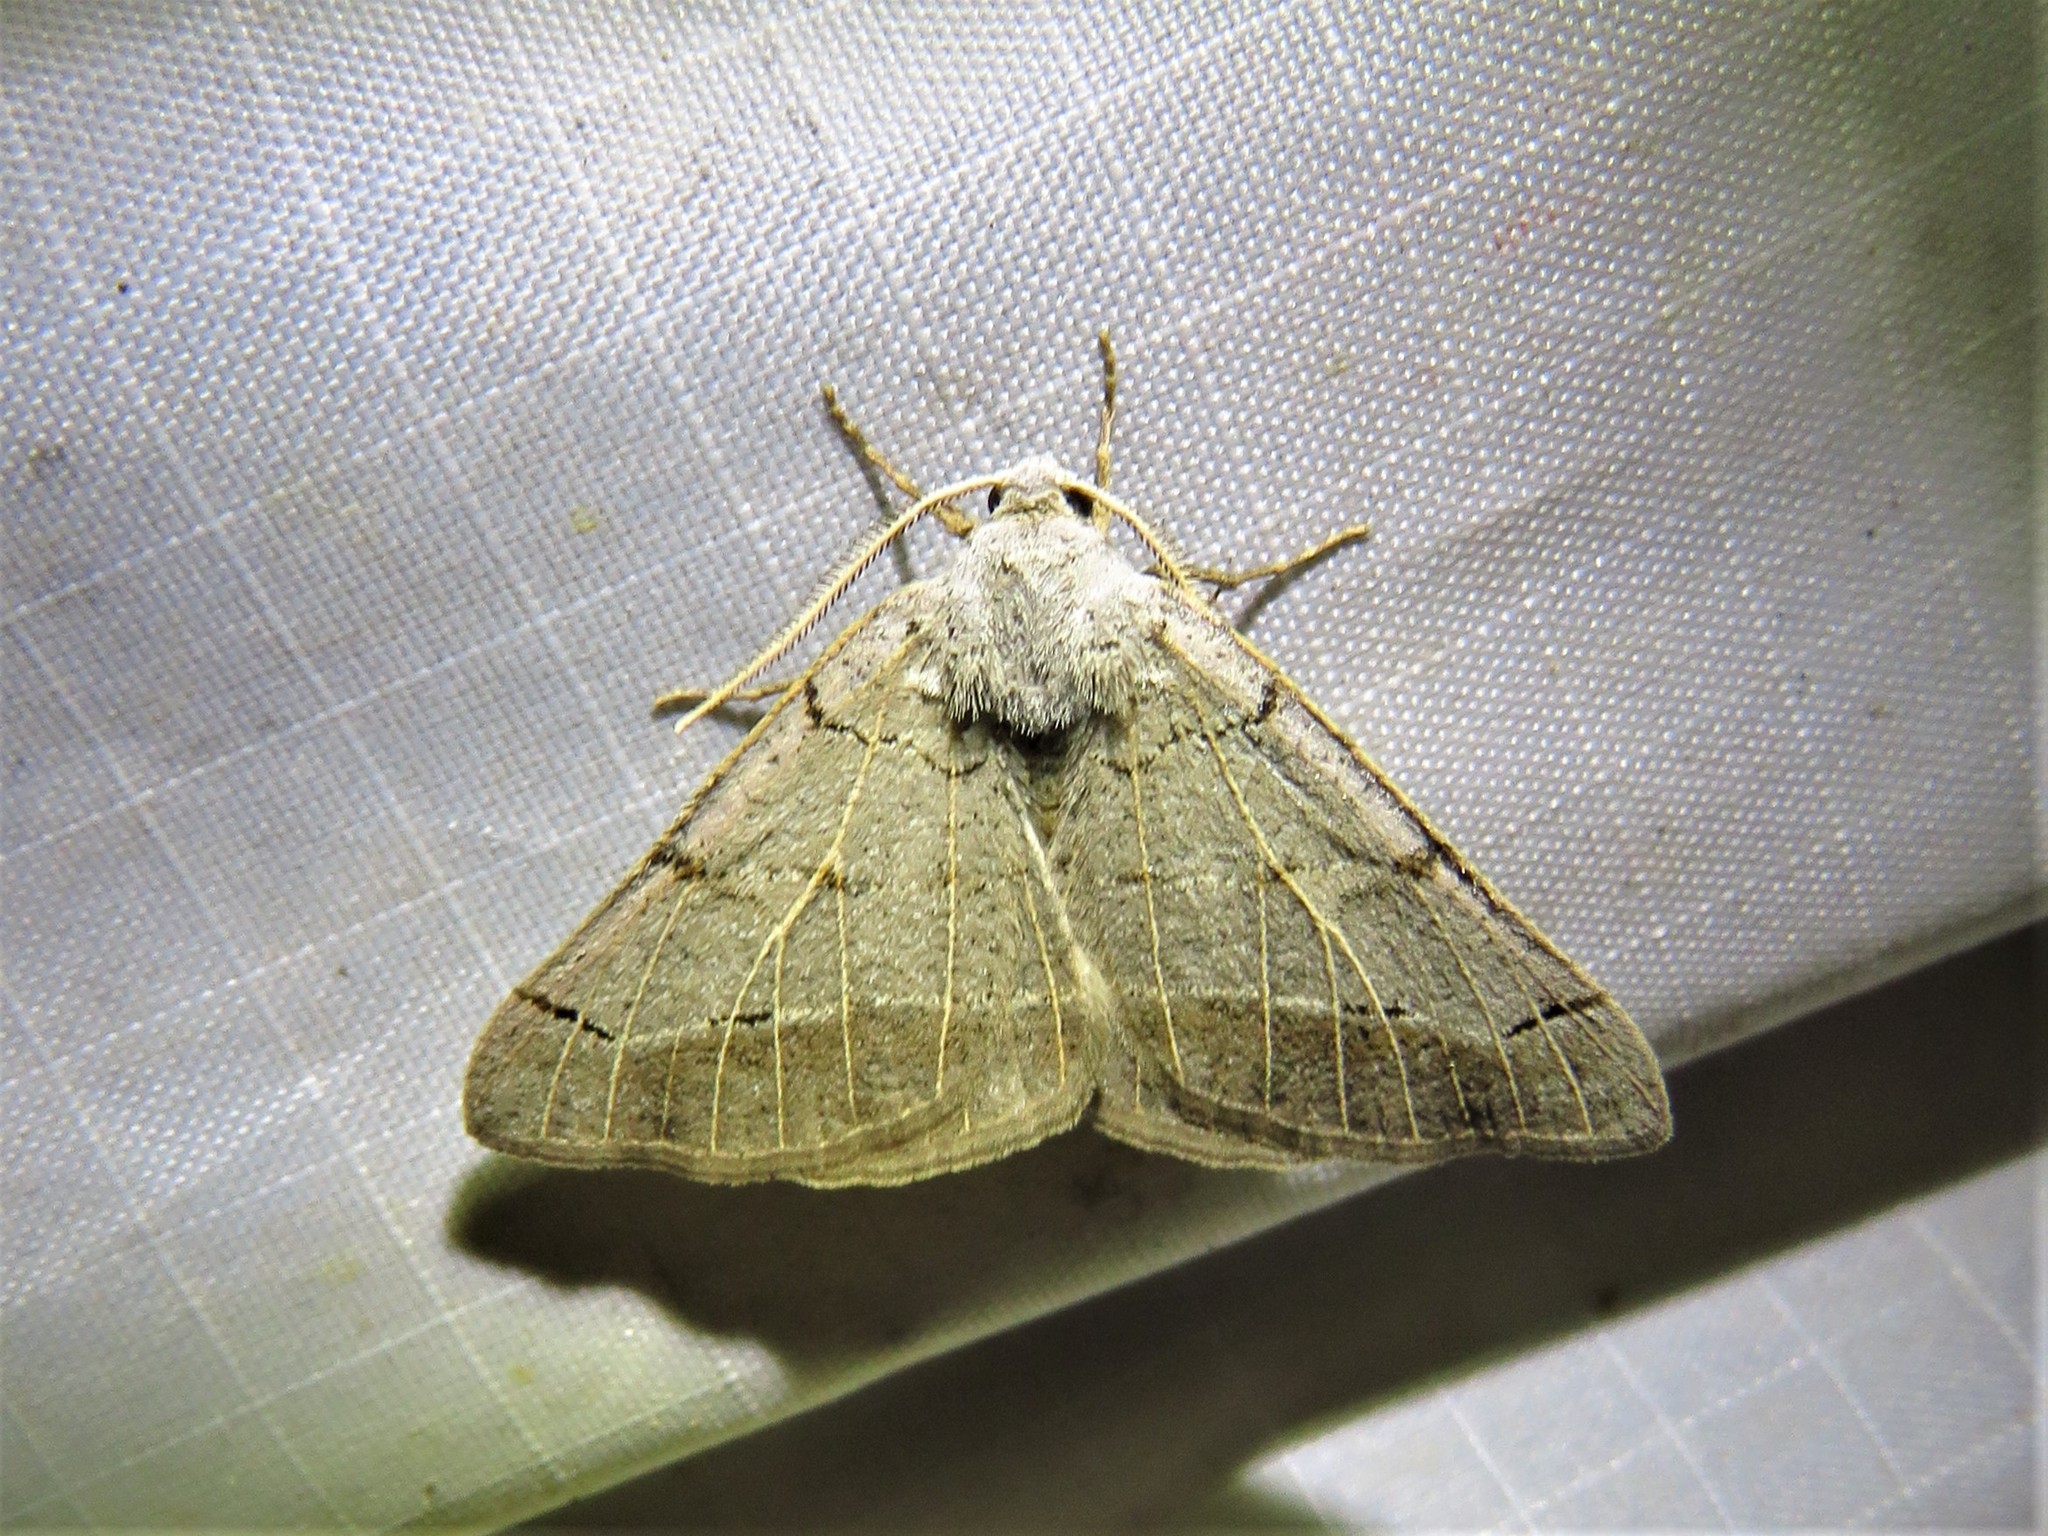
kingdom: Animalia
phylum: Arthropoda
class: Insecta
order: Lepidoptera
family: Geometridae
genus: Isturgia
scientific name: Isturgia dislocaria
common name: Pale-viened enconista
